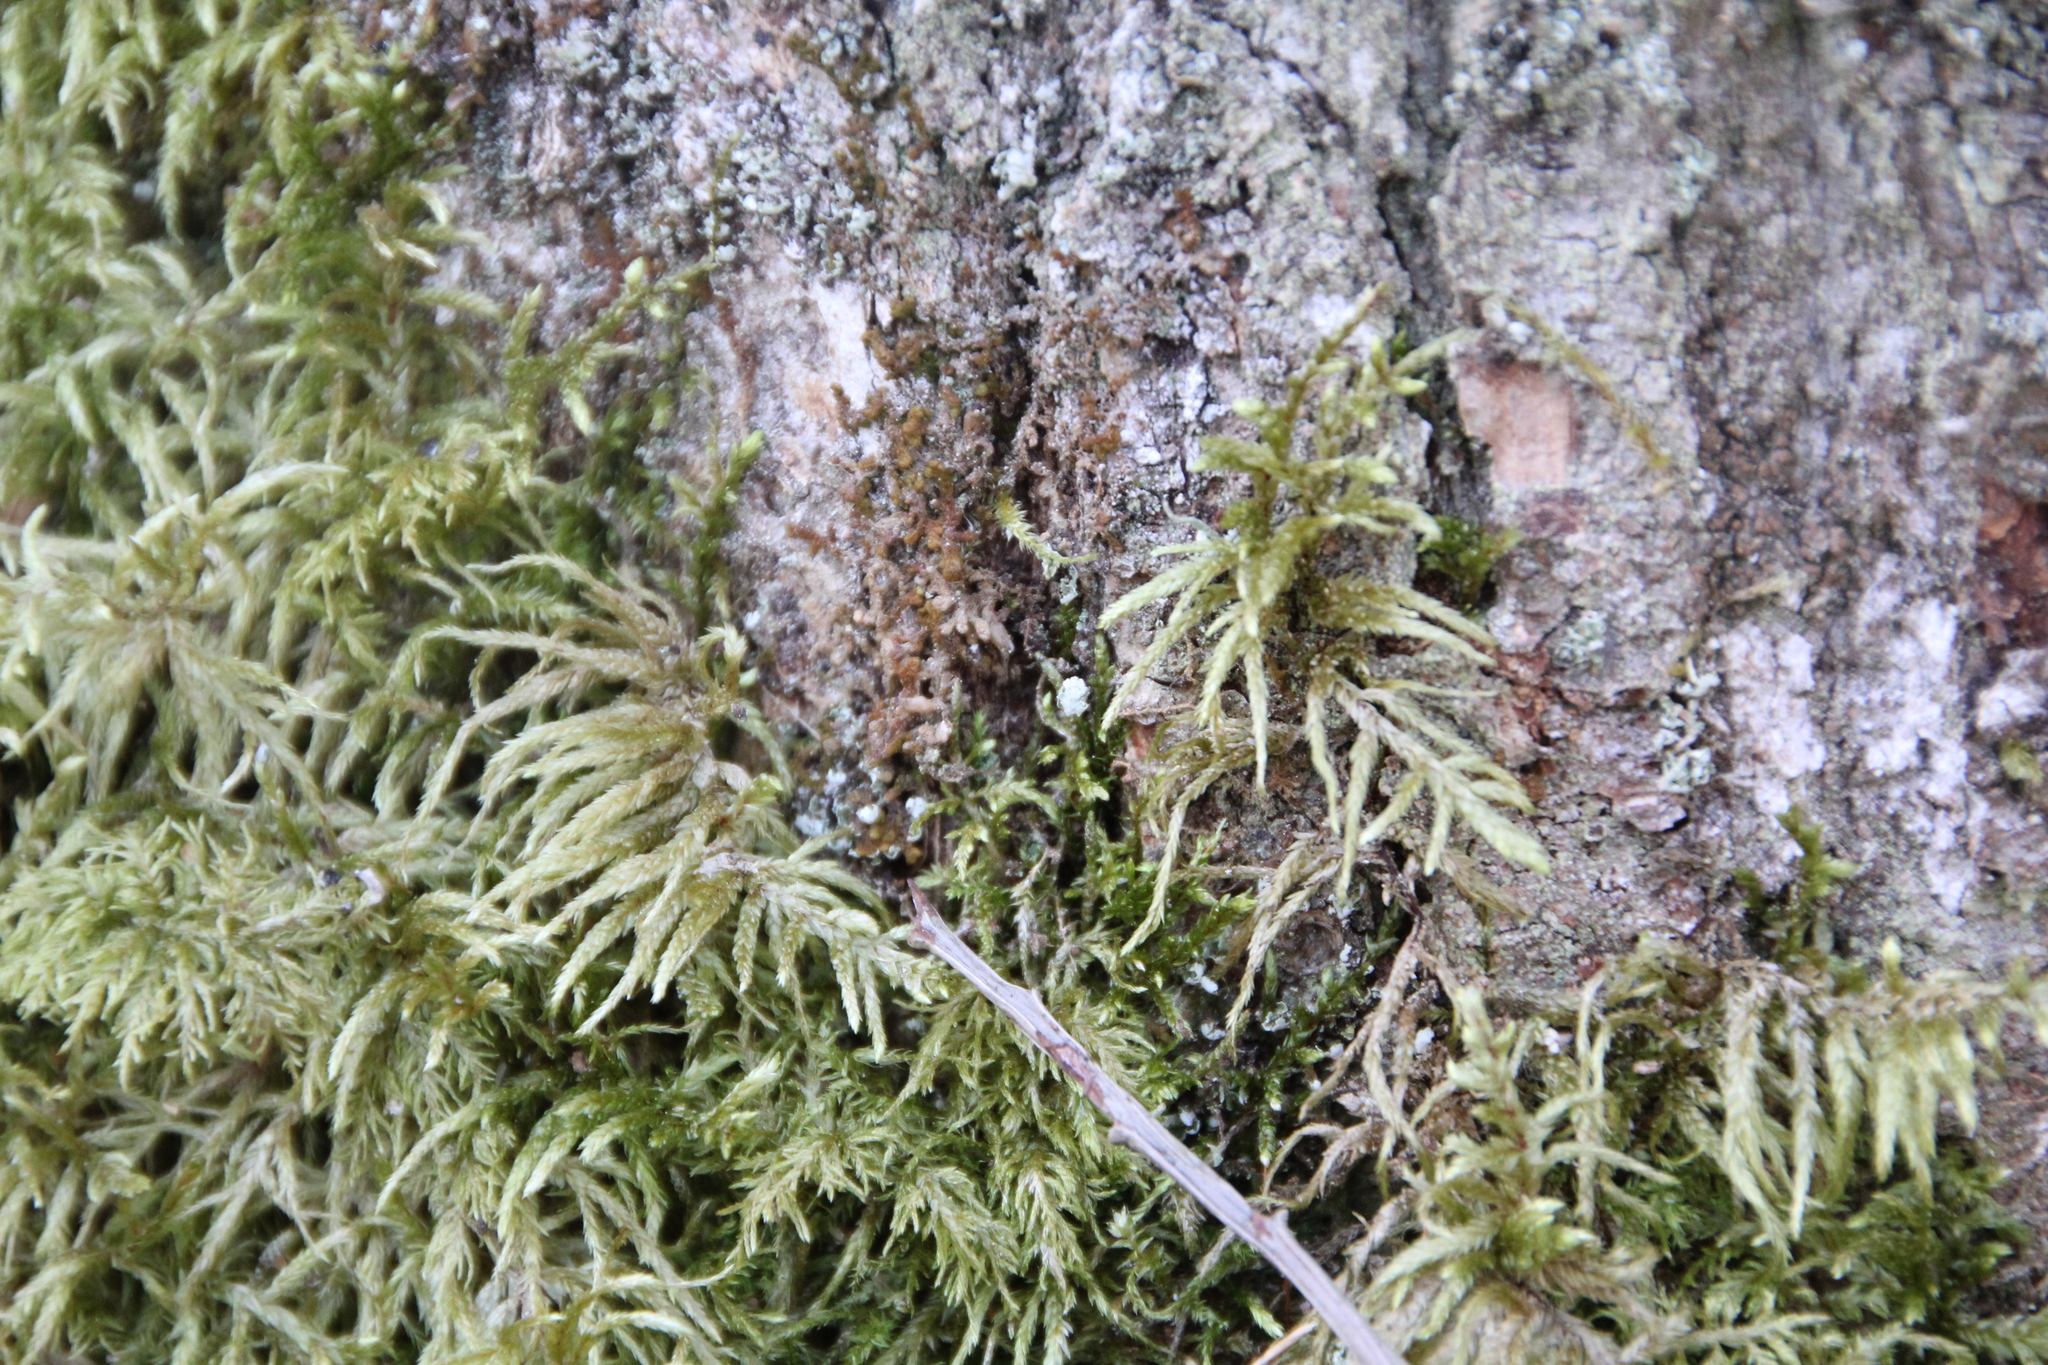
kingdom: Plantae
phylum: Bryophyta
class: Bryopsida
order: Hypnales
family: Hylocomiaceae
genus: Pleurozium
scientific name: Pleurozium schreberi
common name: Red-stemmed feather moss
